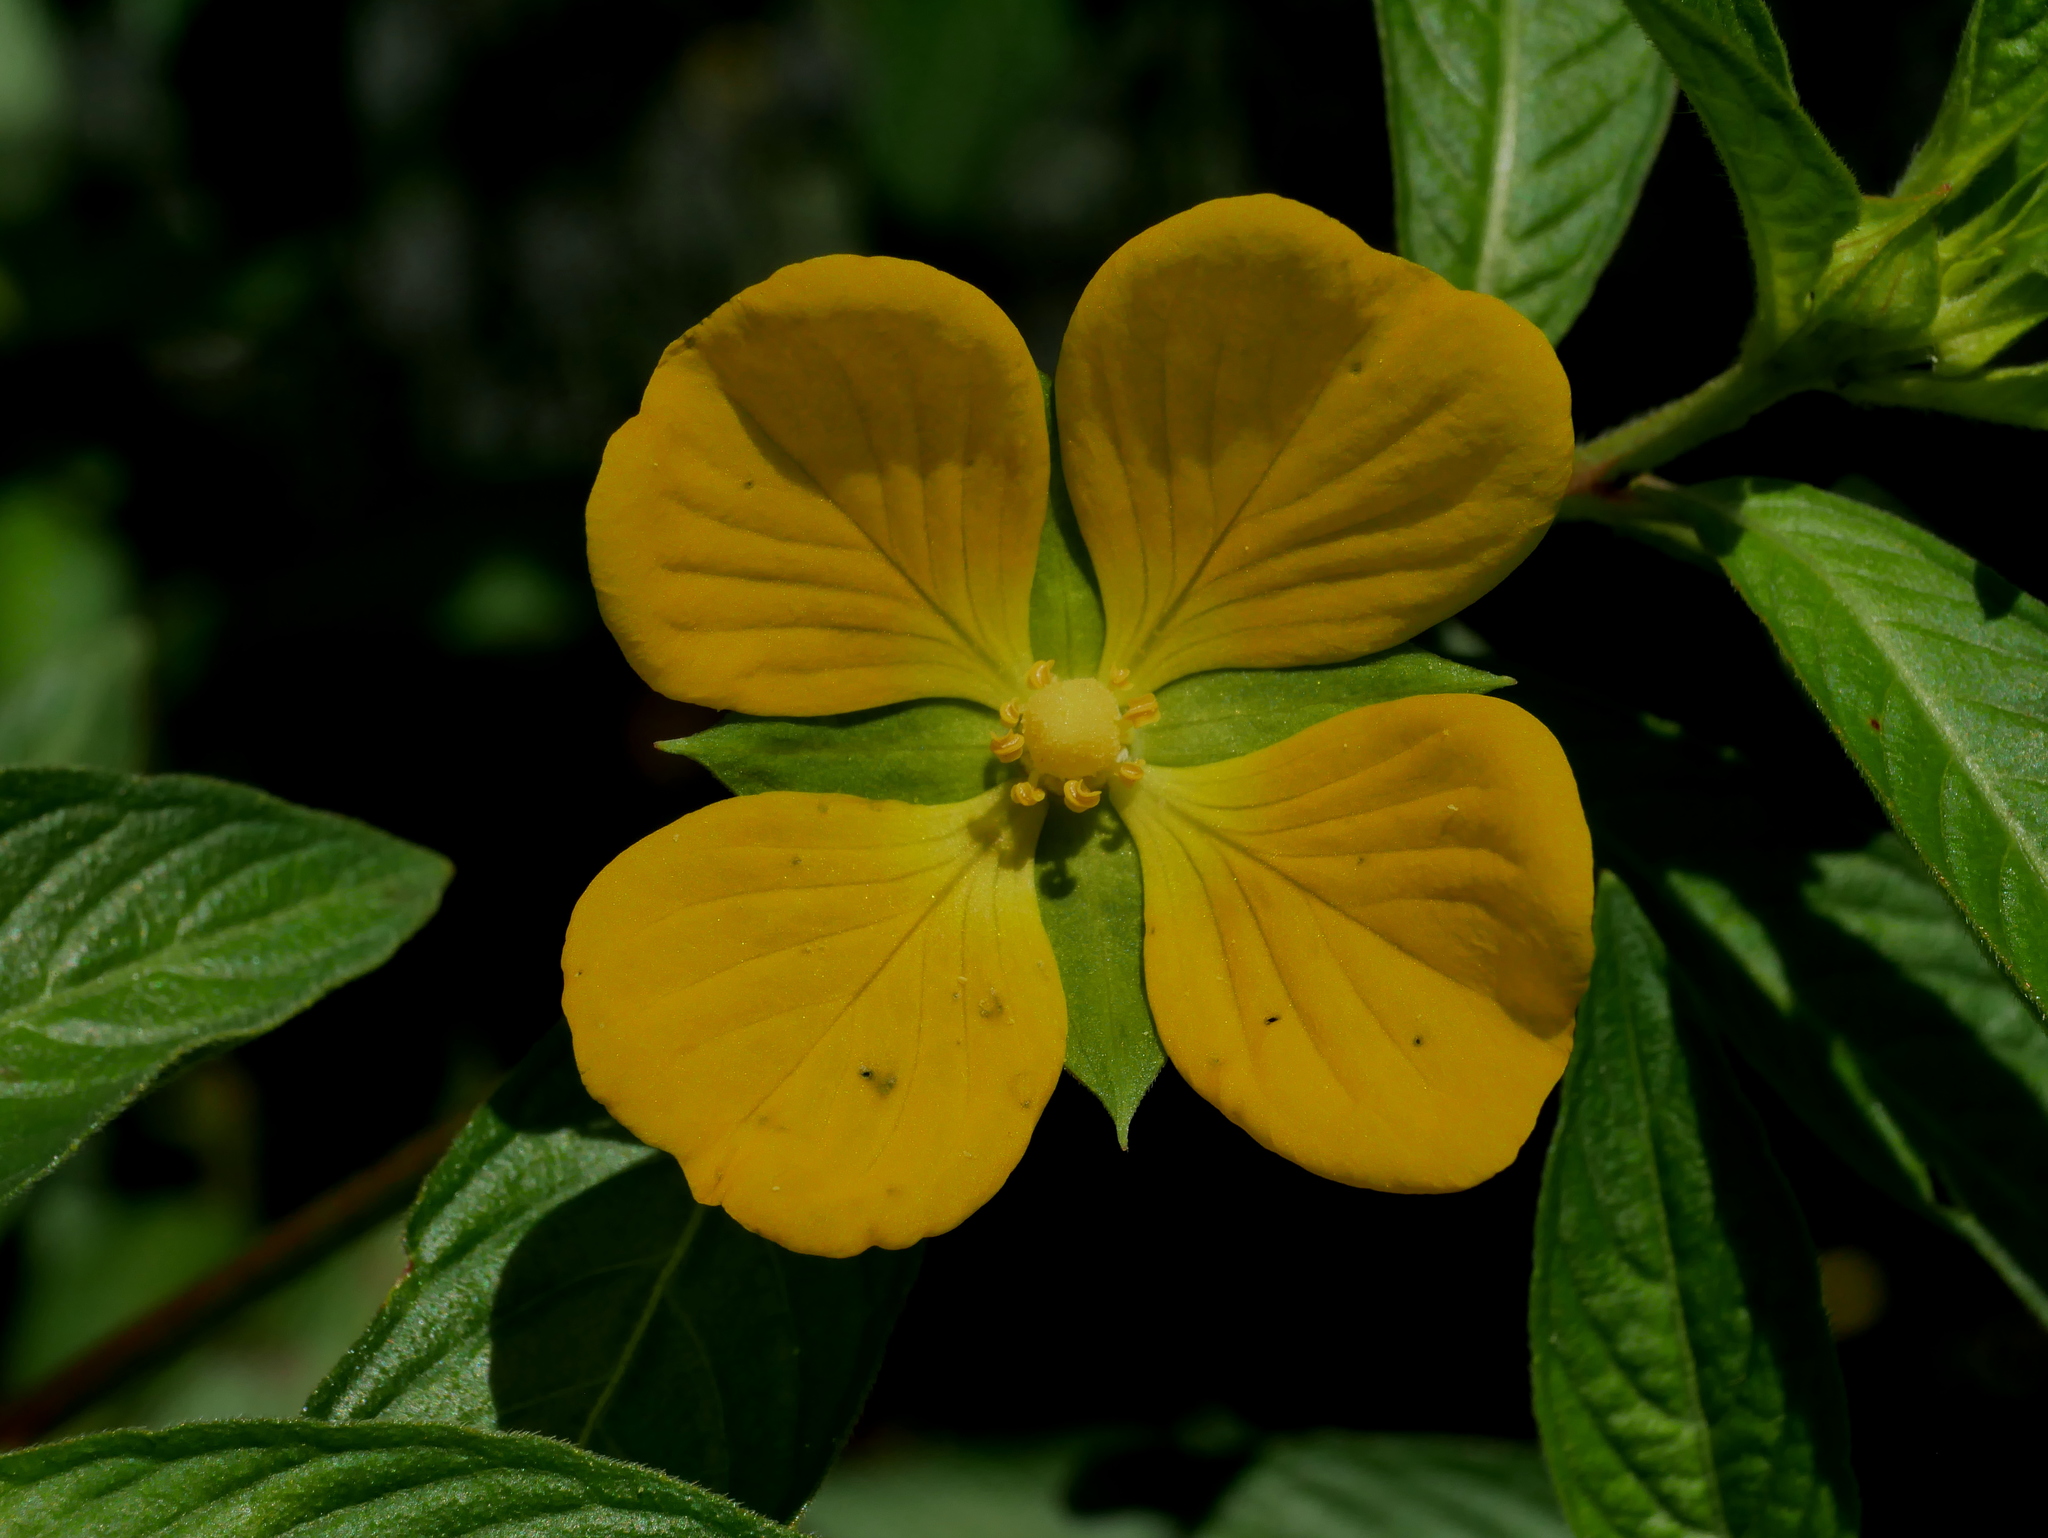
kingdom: Plantae
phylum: Tracheophyta
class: Magnoliopsida
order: Myrtales
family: Onagraceae
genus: Ludwigia
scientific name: Ludwigia octovalvis
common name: Water-primrose
